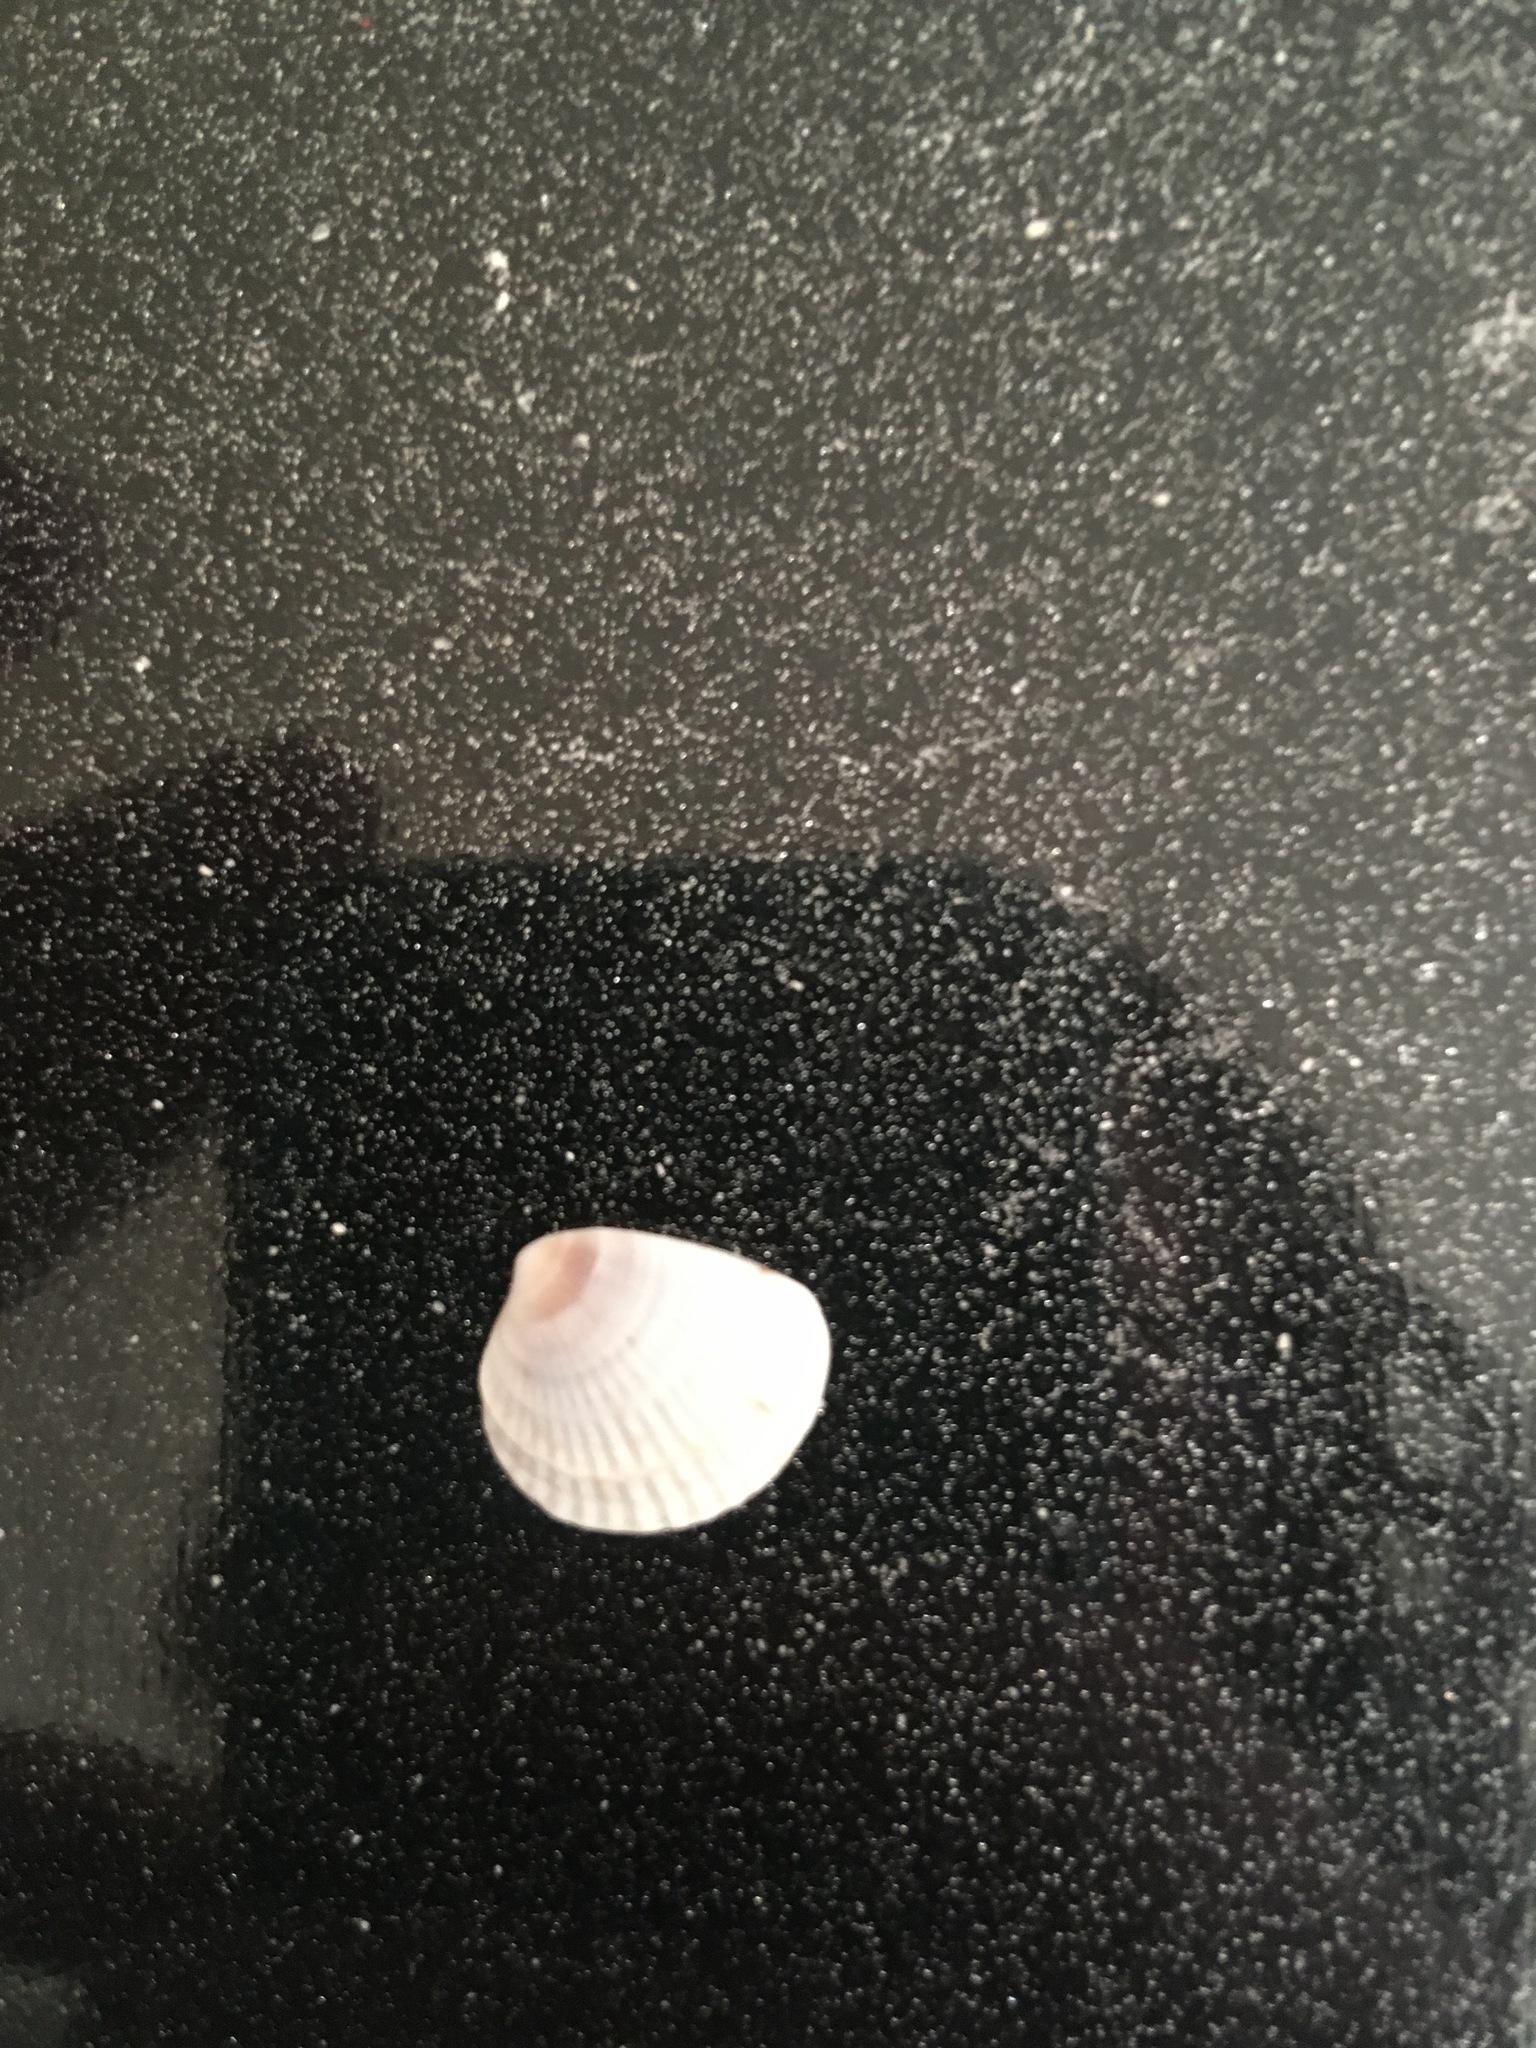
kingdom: Animalia
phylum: Mollusca
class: Bivalvia
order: Venerida
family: Veneridae
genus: Chione
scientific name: Chione elevata
